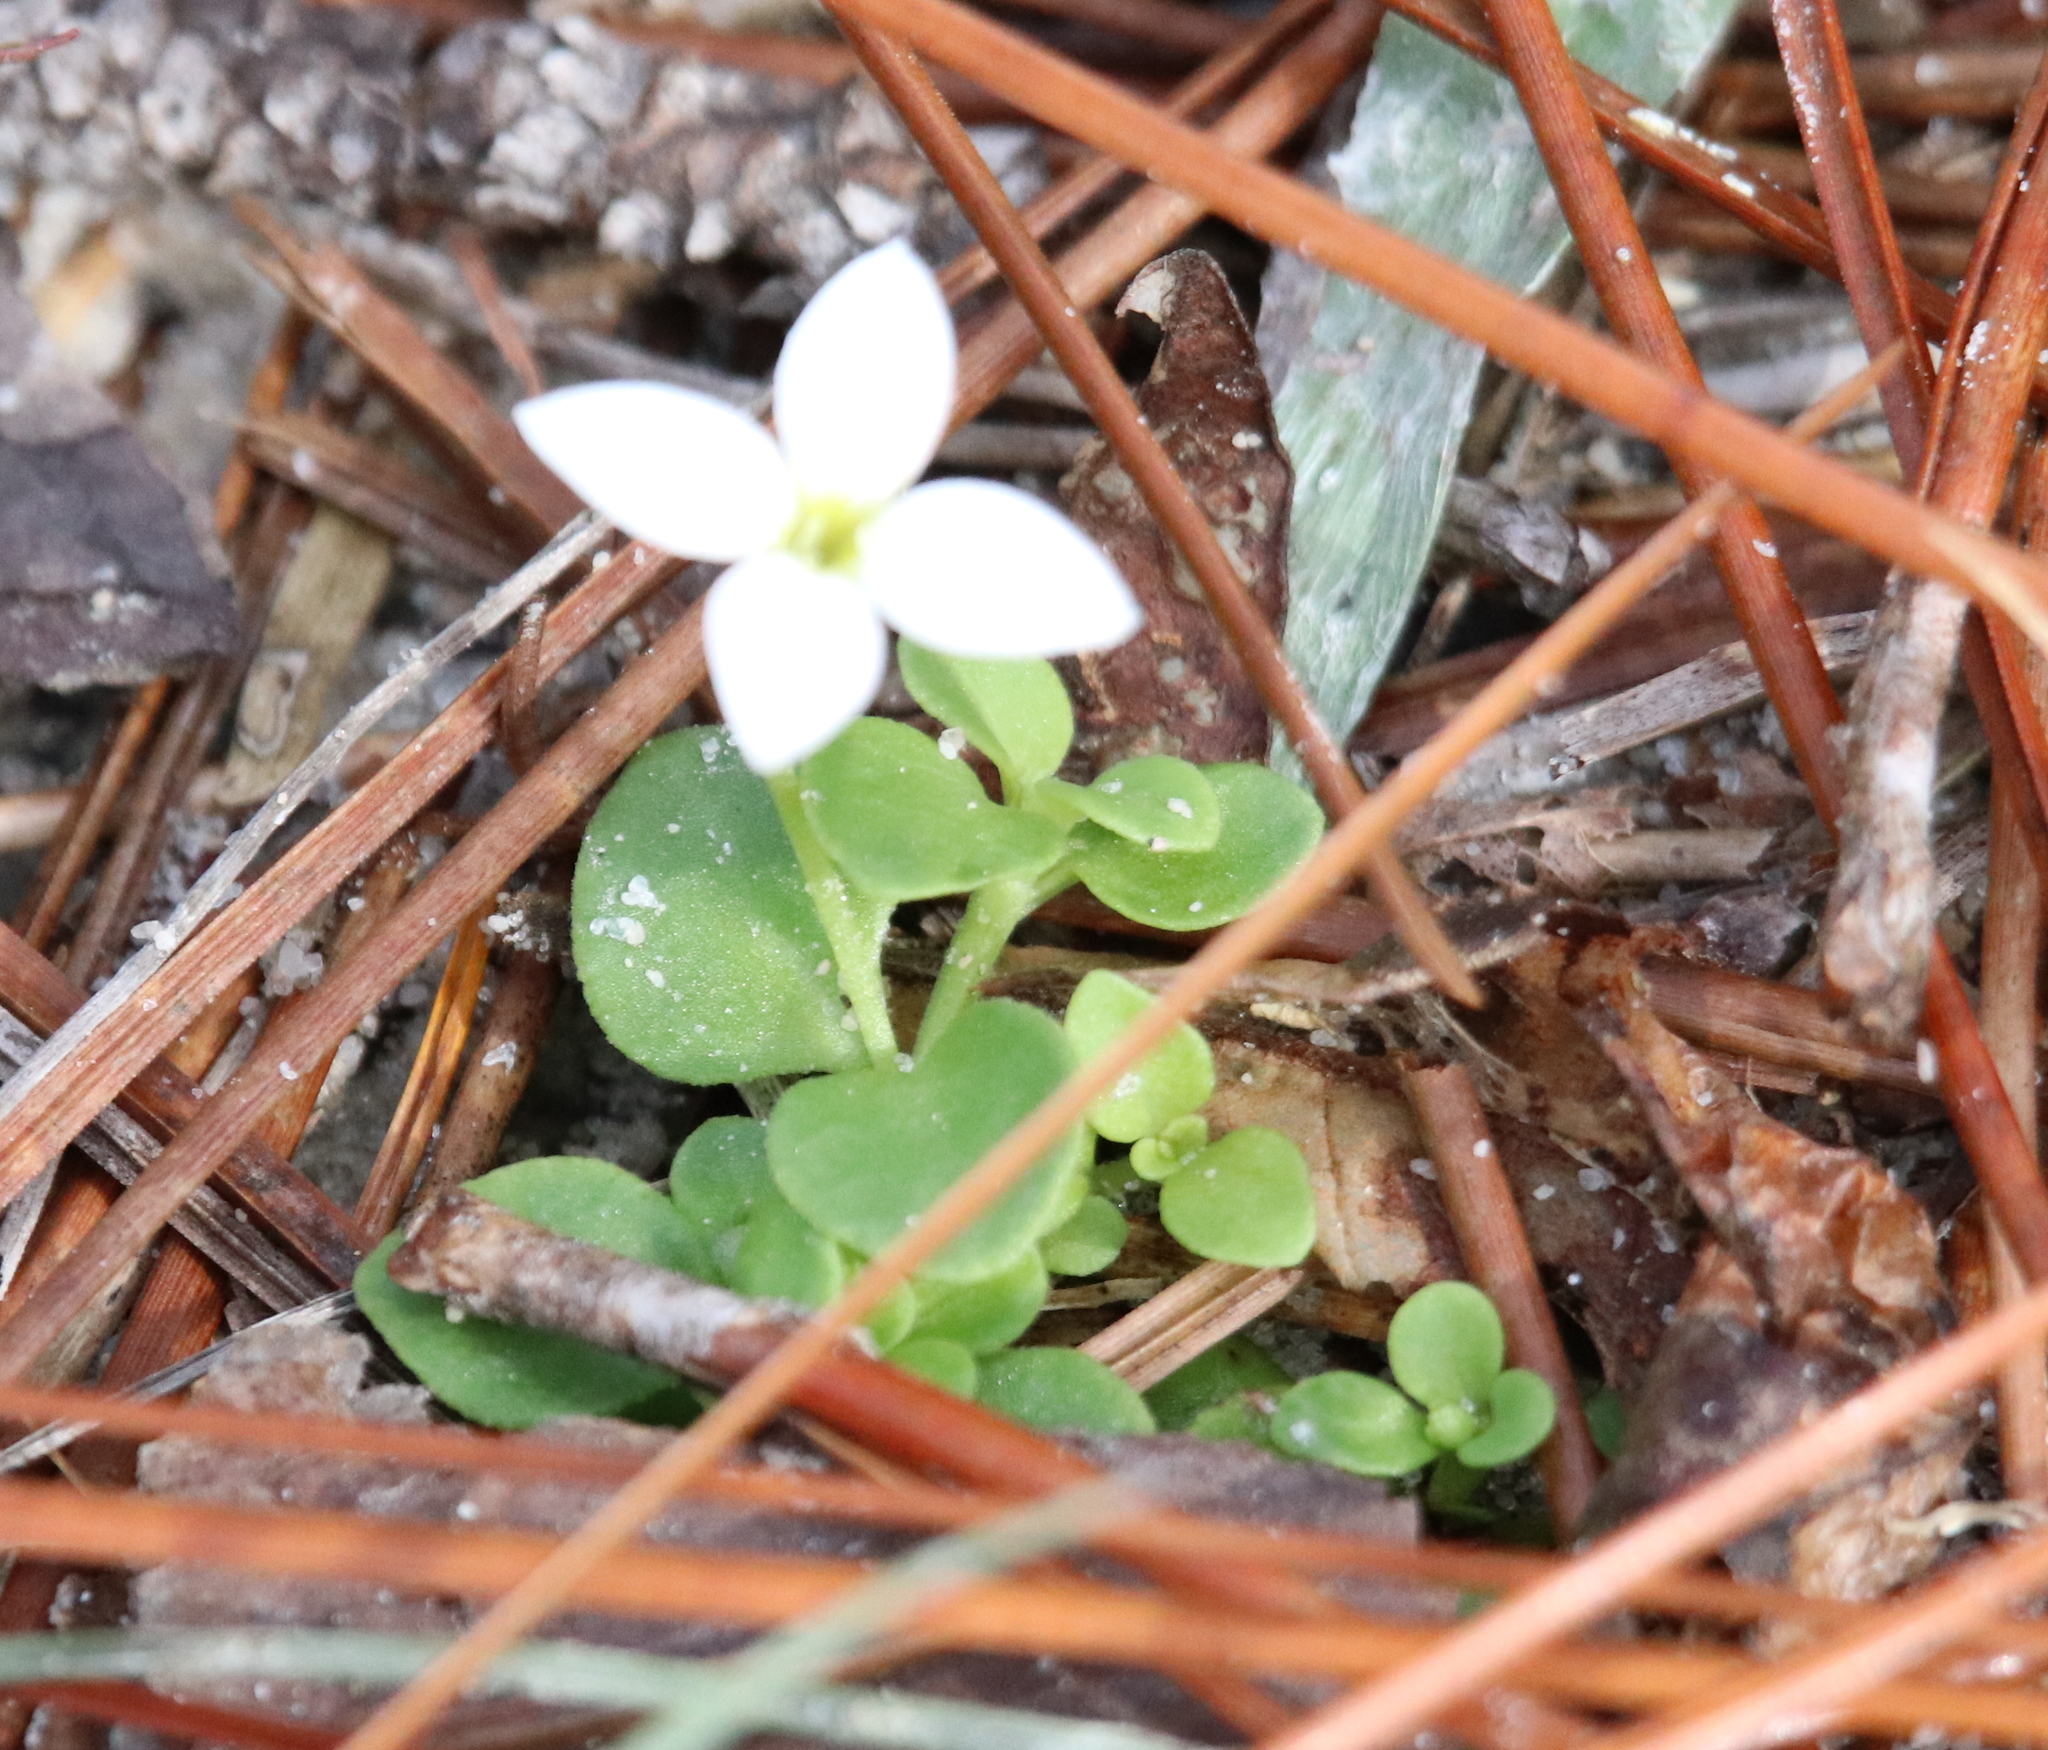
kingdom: Plantae
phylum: Tracheophyta
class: Magnoliopsida
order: Gentianales
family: Rubiaceae
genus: Houstonia
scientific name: Houstonia procumbens
